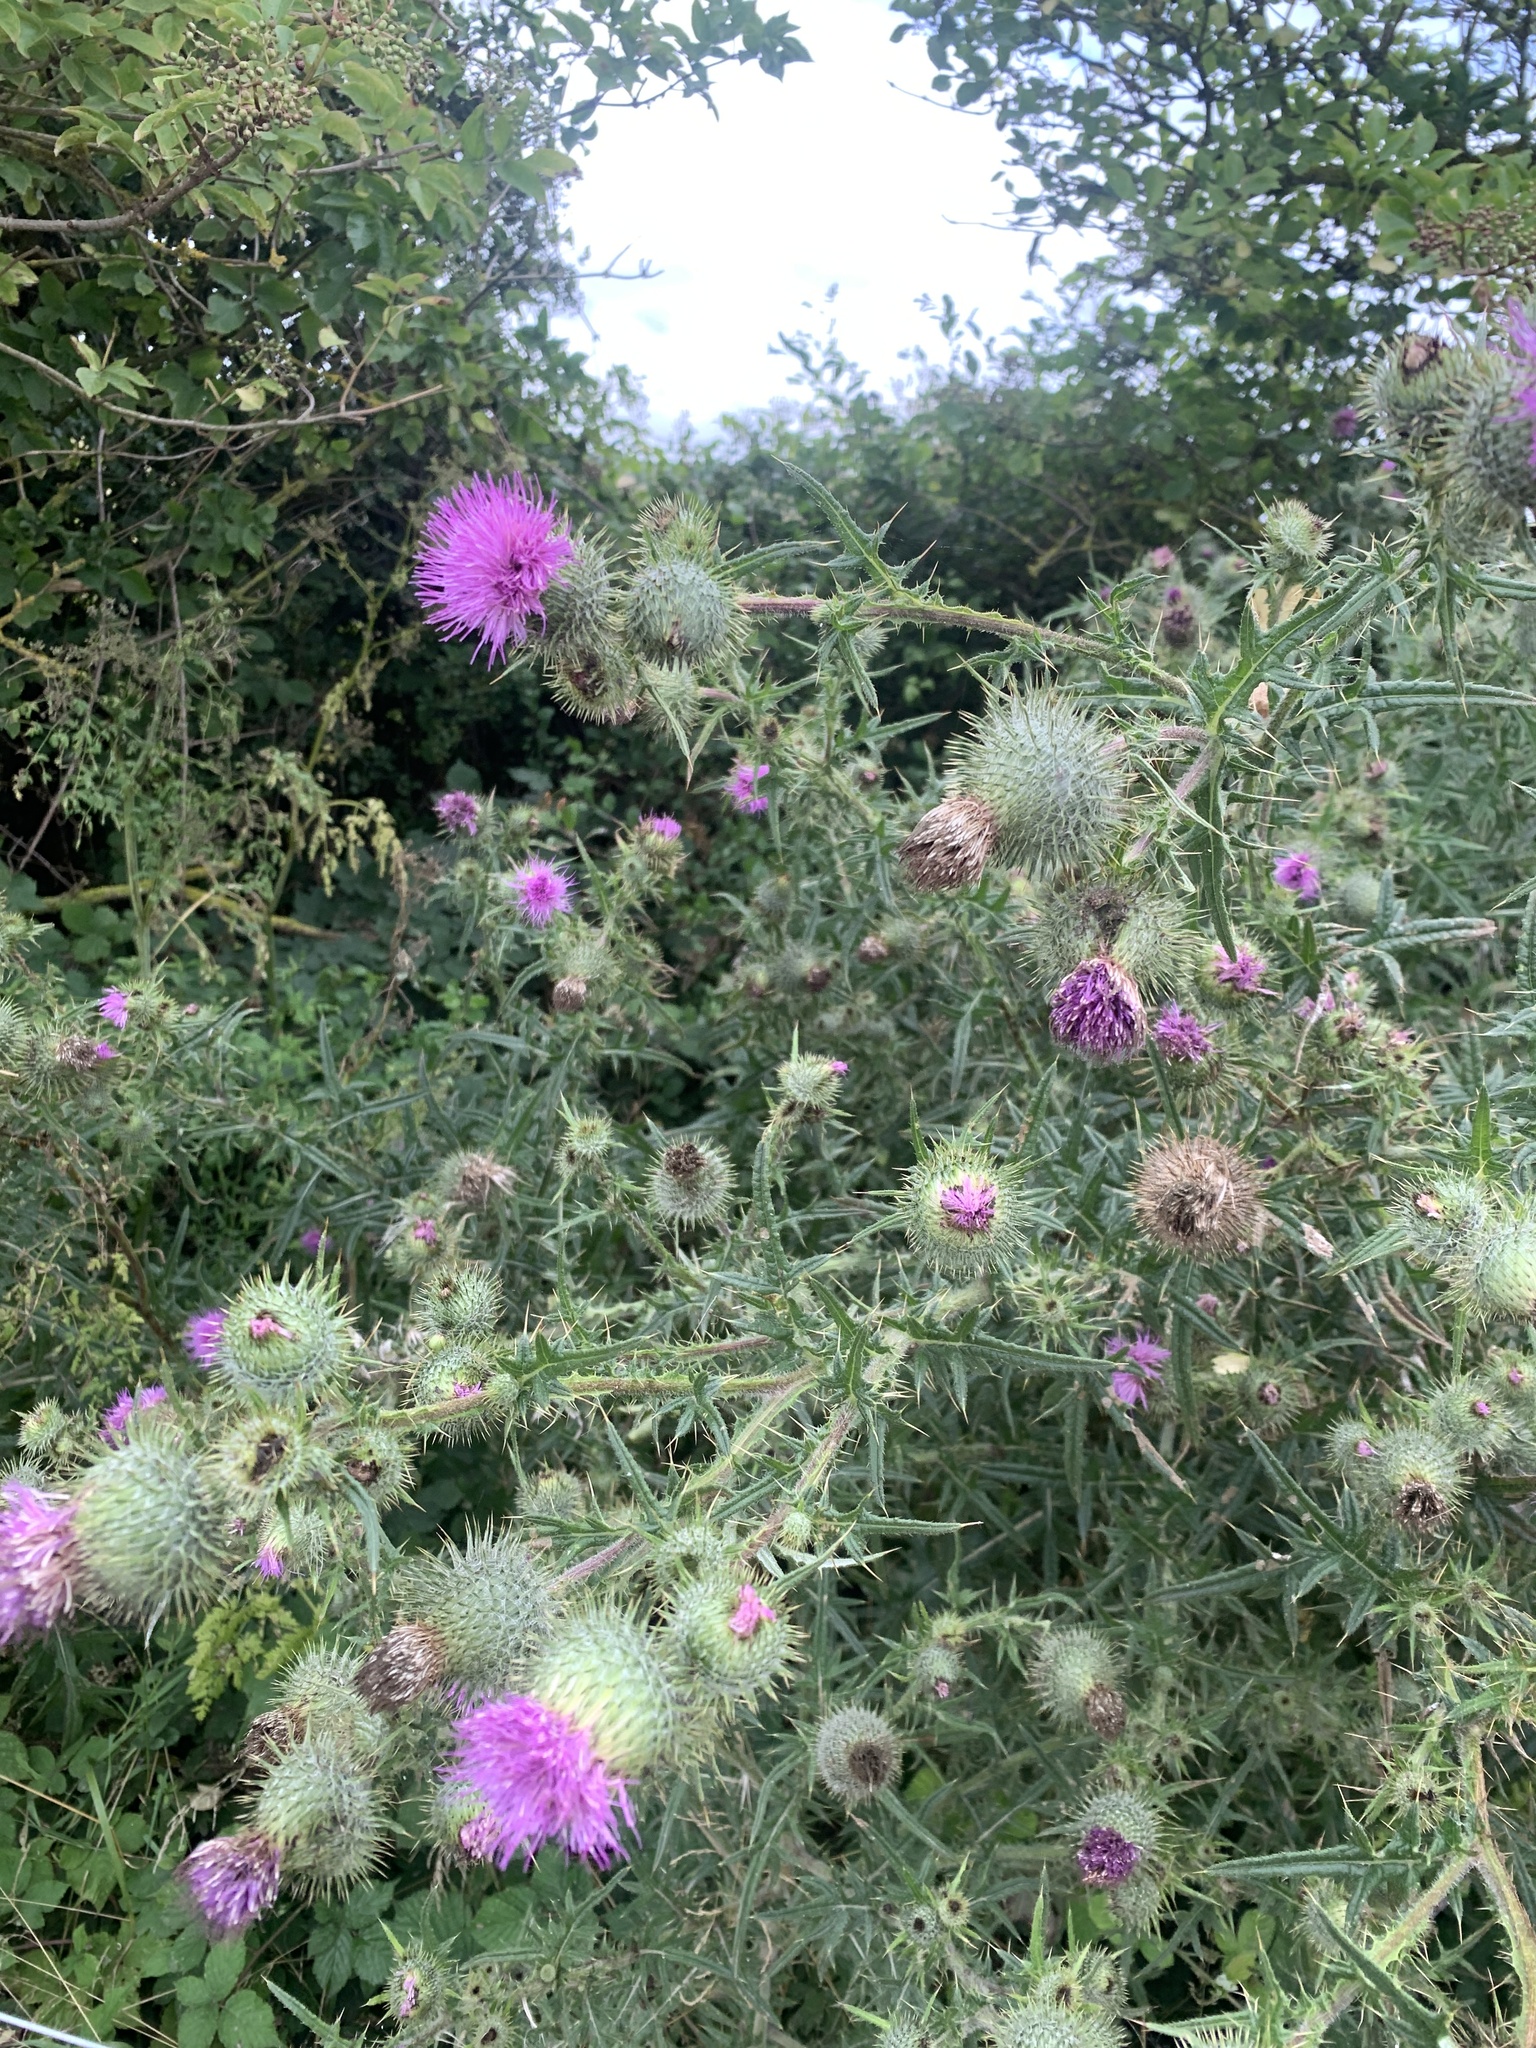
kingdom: Plantae
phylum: Tracheophyta
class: Magnoliopsida
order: Asterales
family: Asteraceae
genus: Cirsium
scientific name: Cirsium vulgare
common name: Bull thistle
